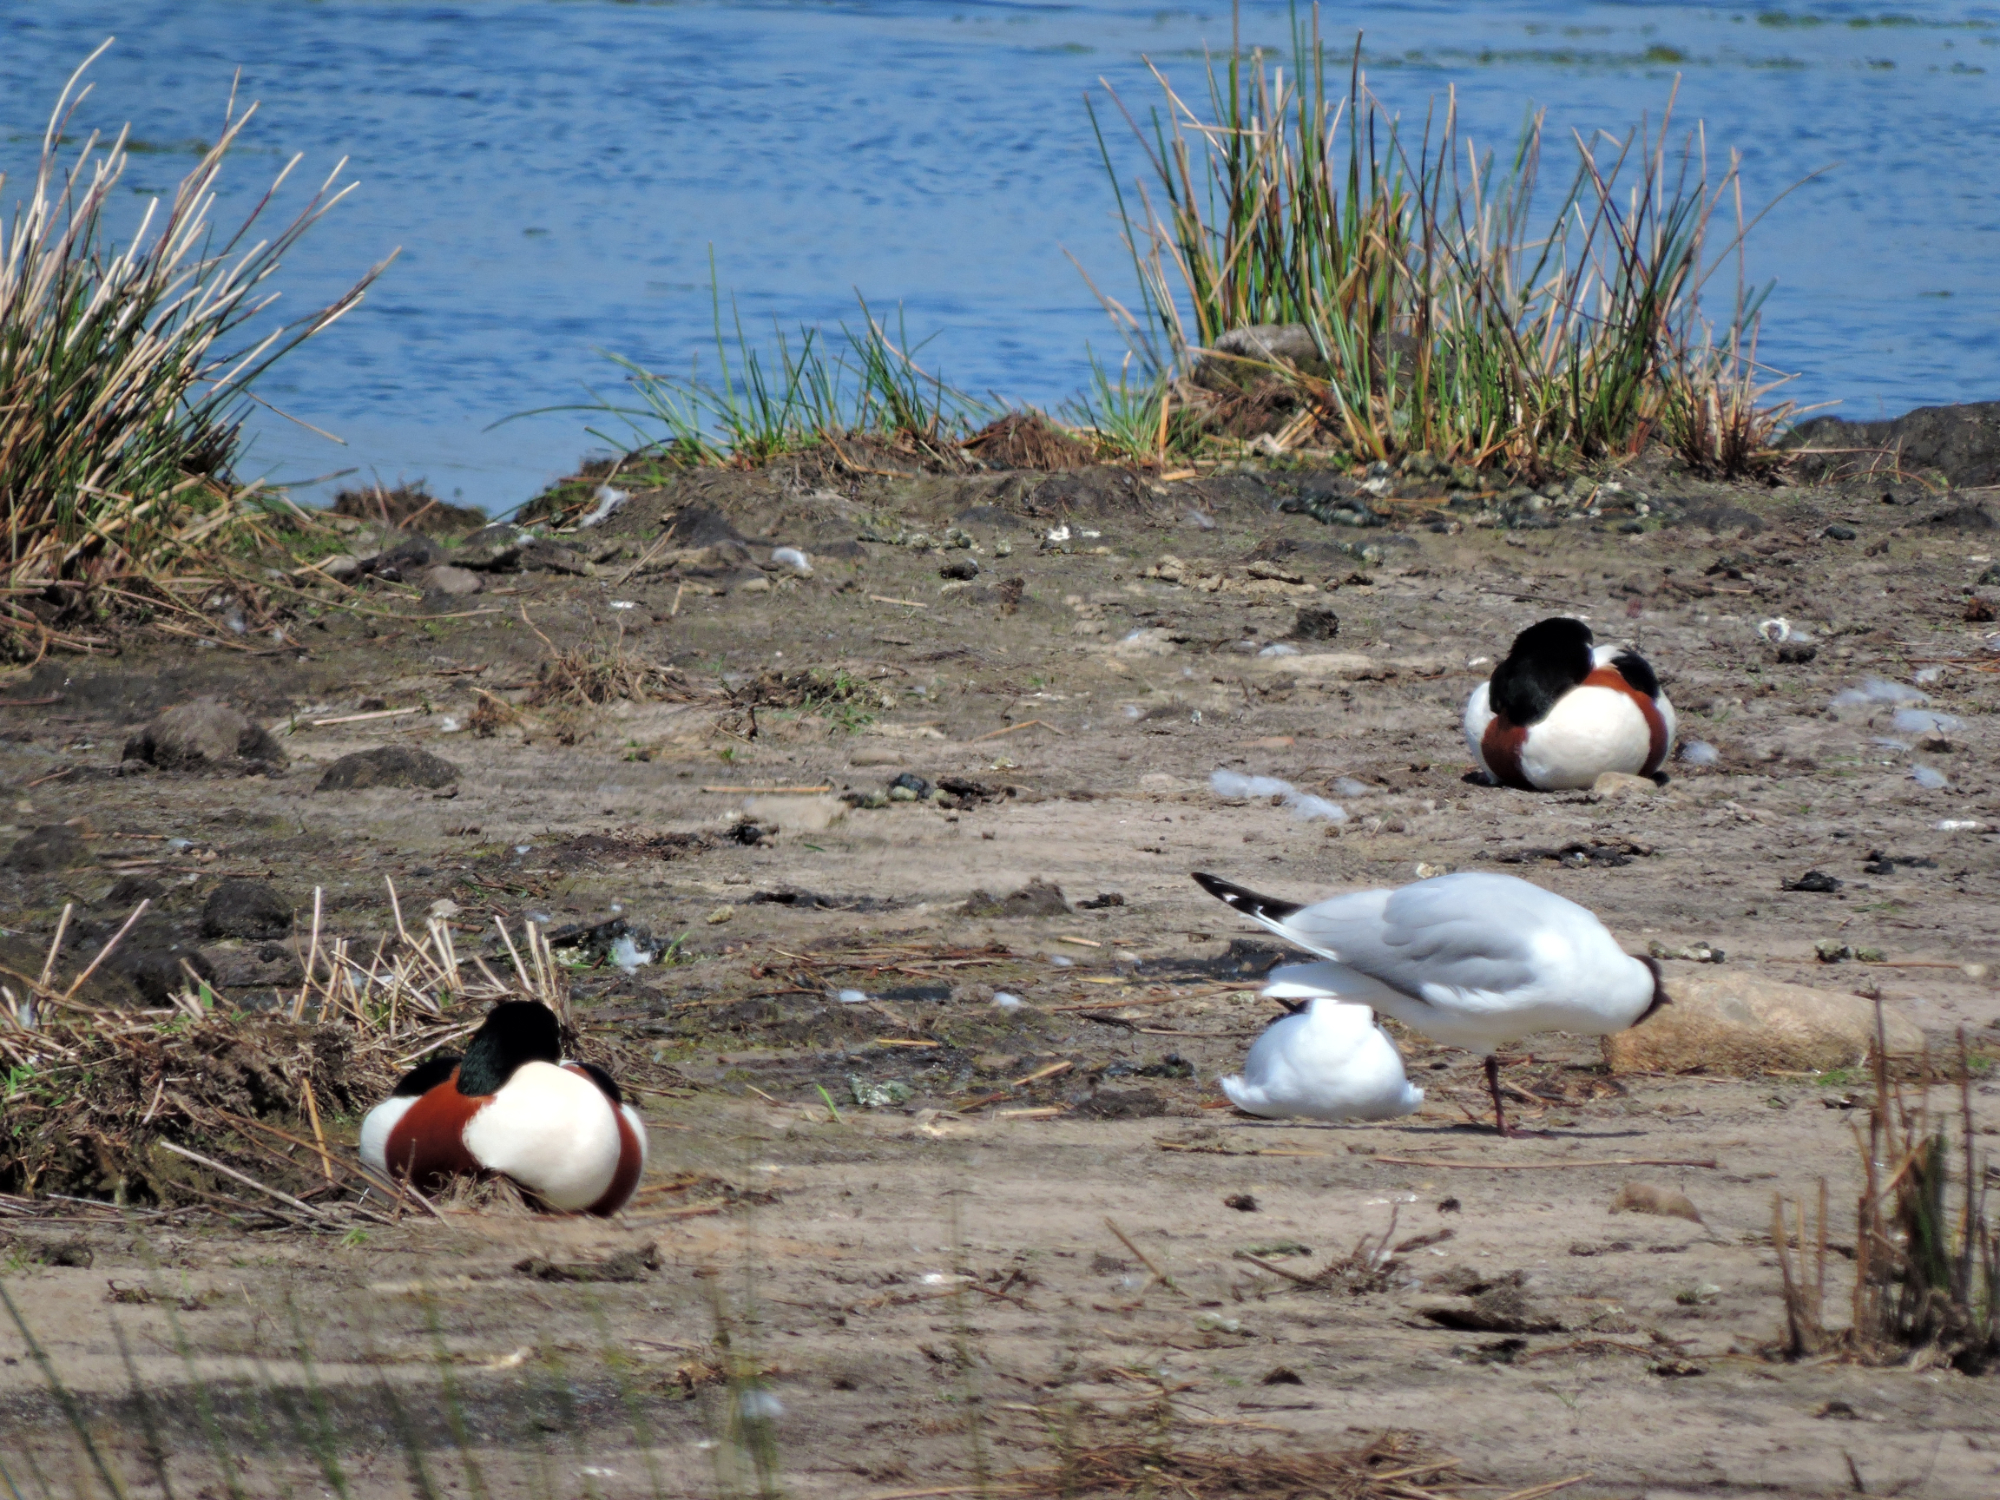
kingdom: Animalia
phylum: Chordata
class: Aves
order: Anseriformes
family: Anatidae
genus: Tadorna
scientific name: Tadorna tadorna
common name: Common shelduck
